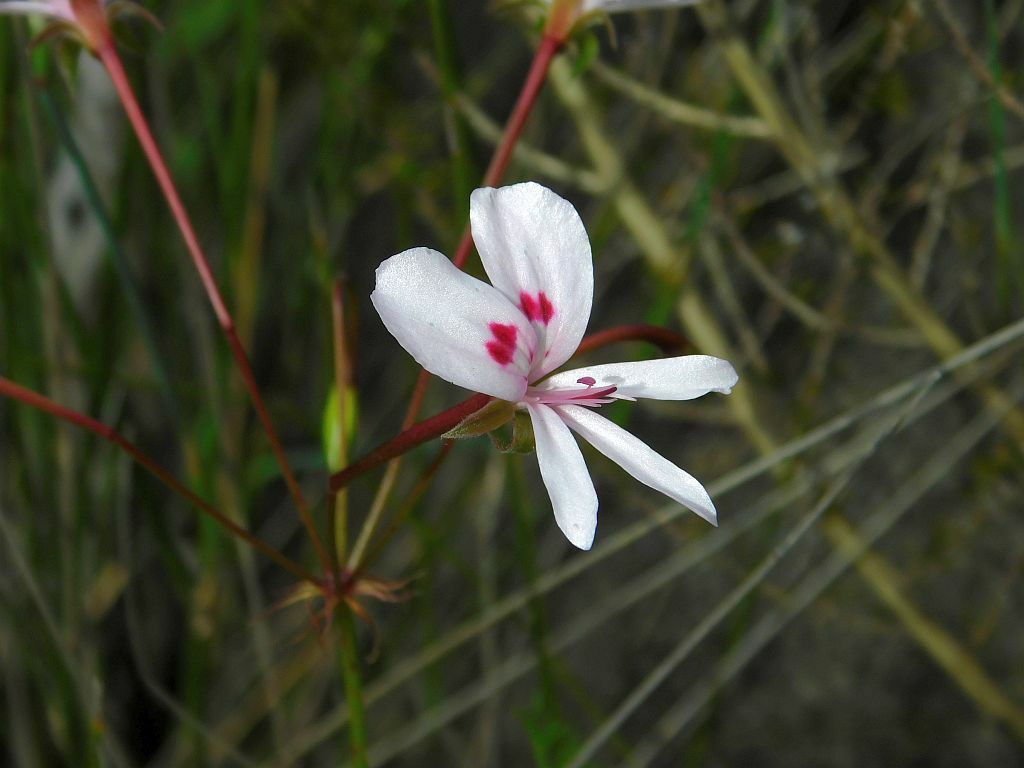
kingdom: Plantae
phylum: Tracheophyta
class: Magnoliopsida
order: Geraniales
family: Geraniaceae
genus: Pelargonium
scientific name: Pelargonium artemisiifolium
